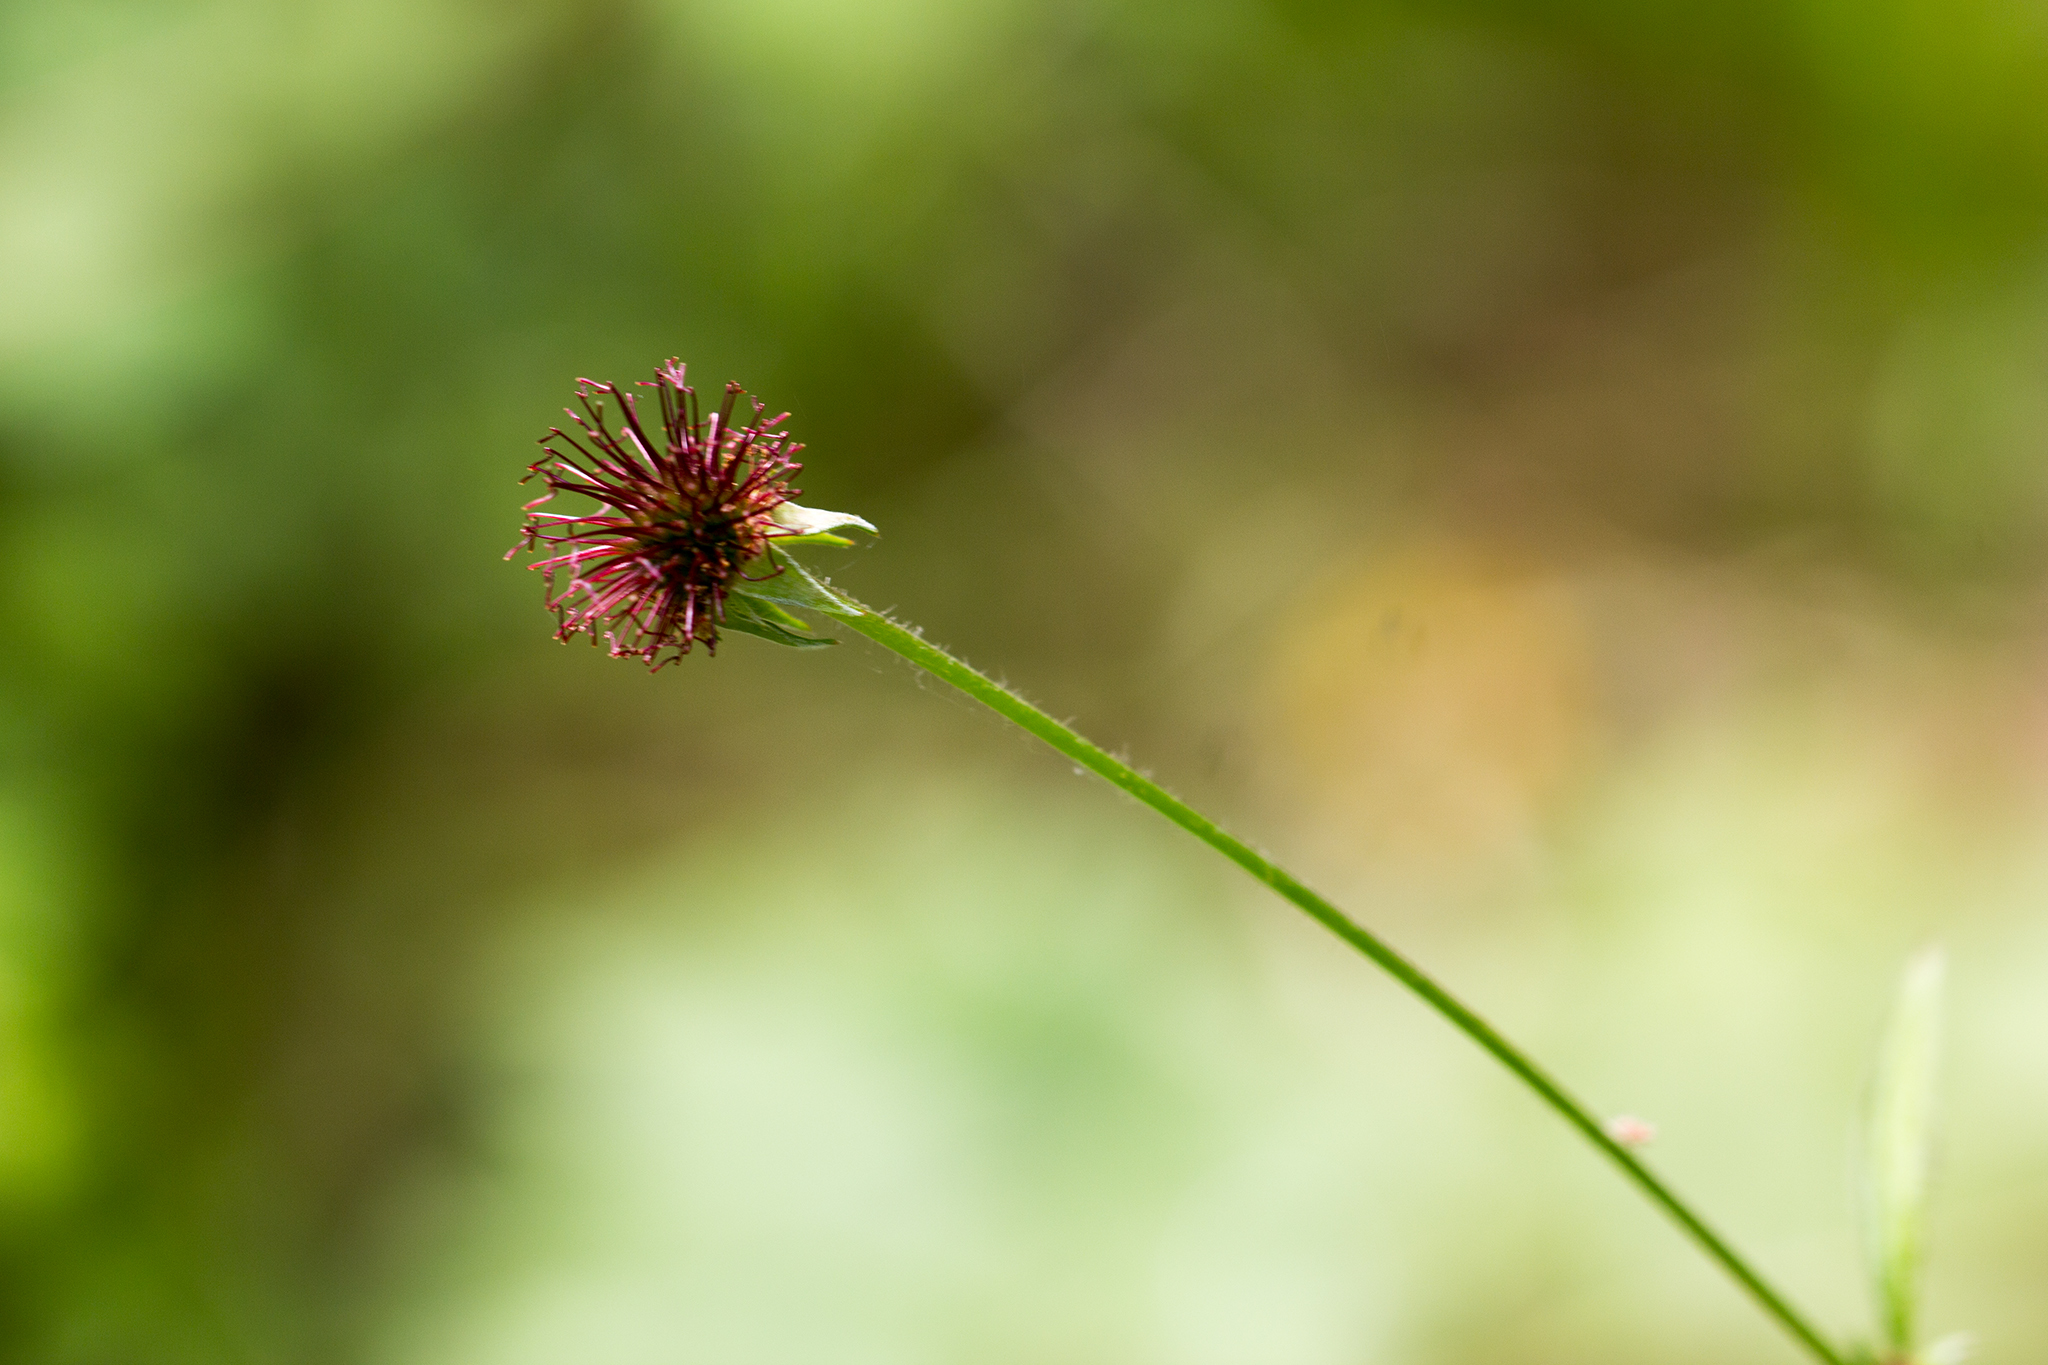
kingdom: Plantae
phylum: Tracheophyta
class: Magnoliopsida
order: Rosales
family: Rosaceae
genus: Geum
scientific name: Geum urbanum
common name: Wood avens
